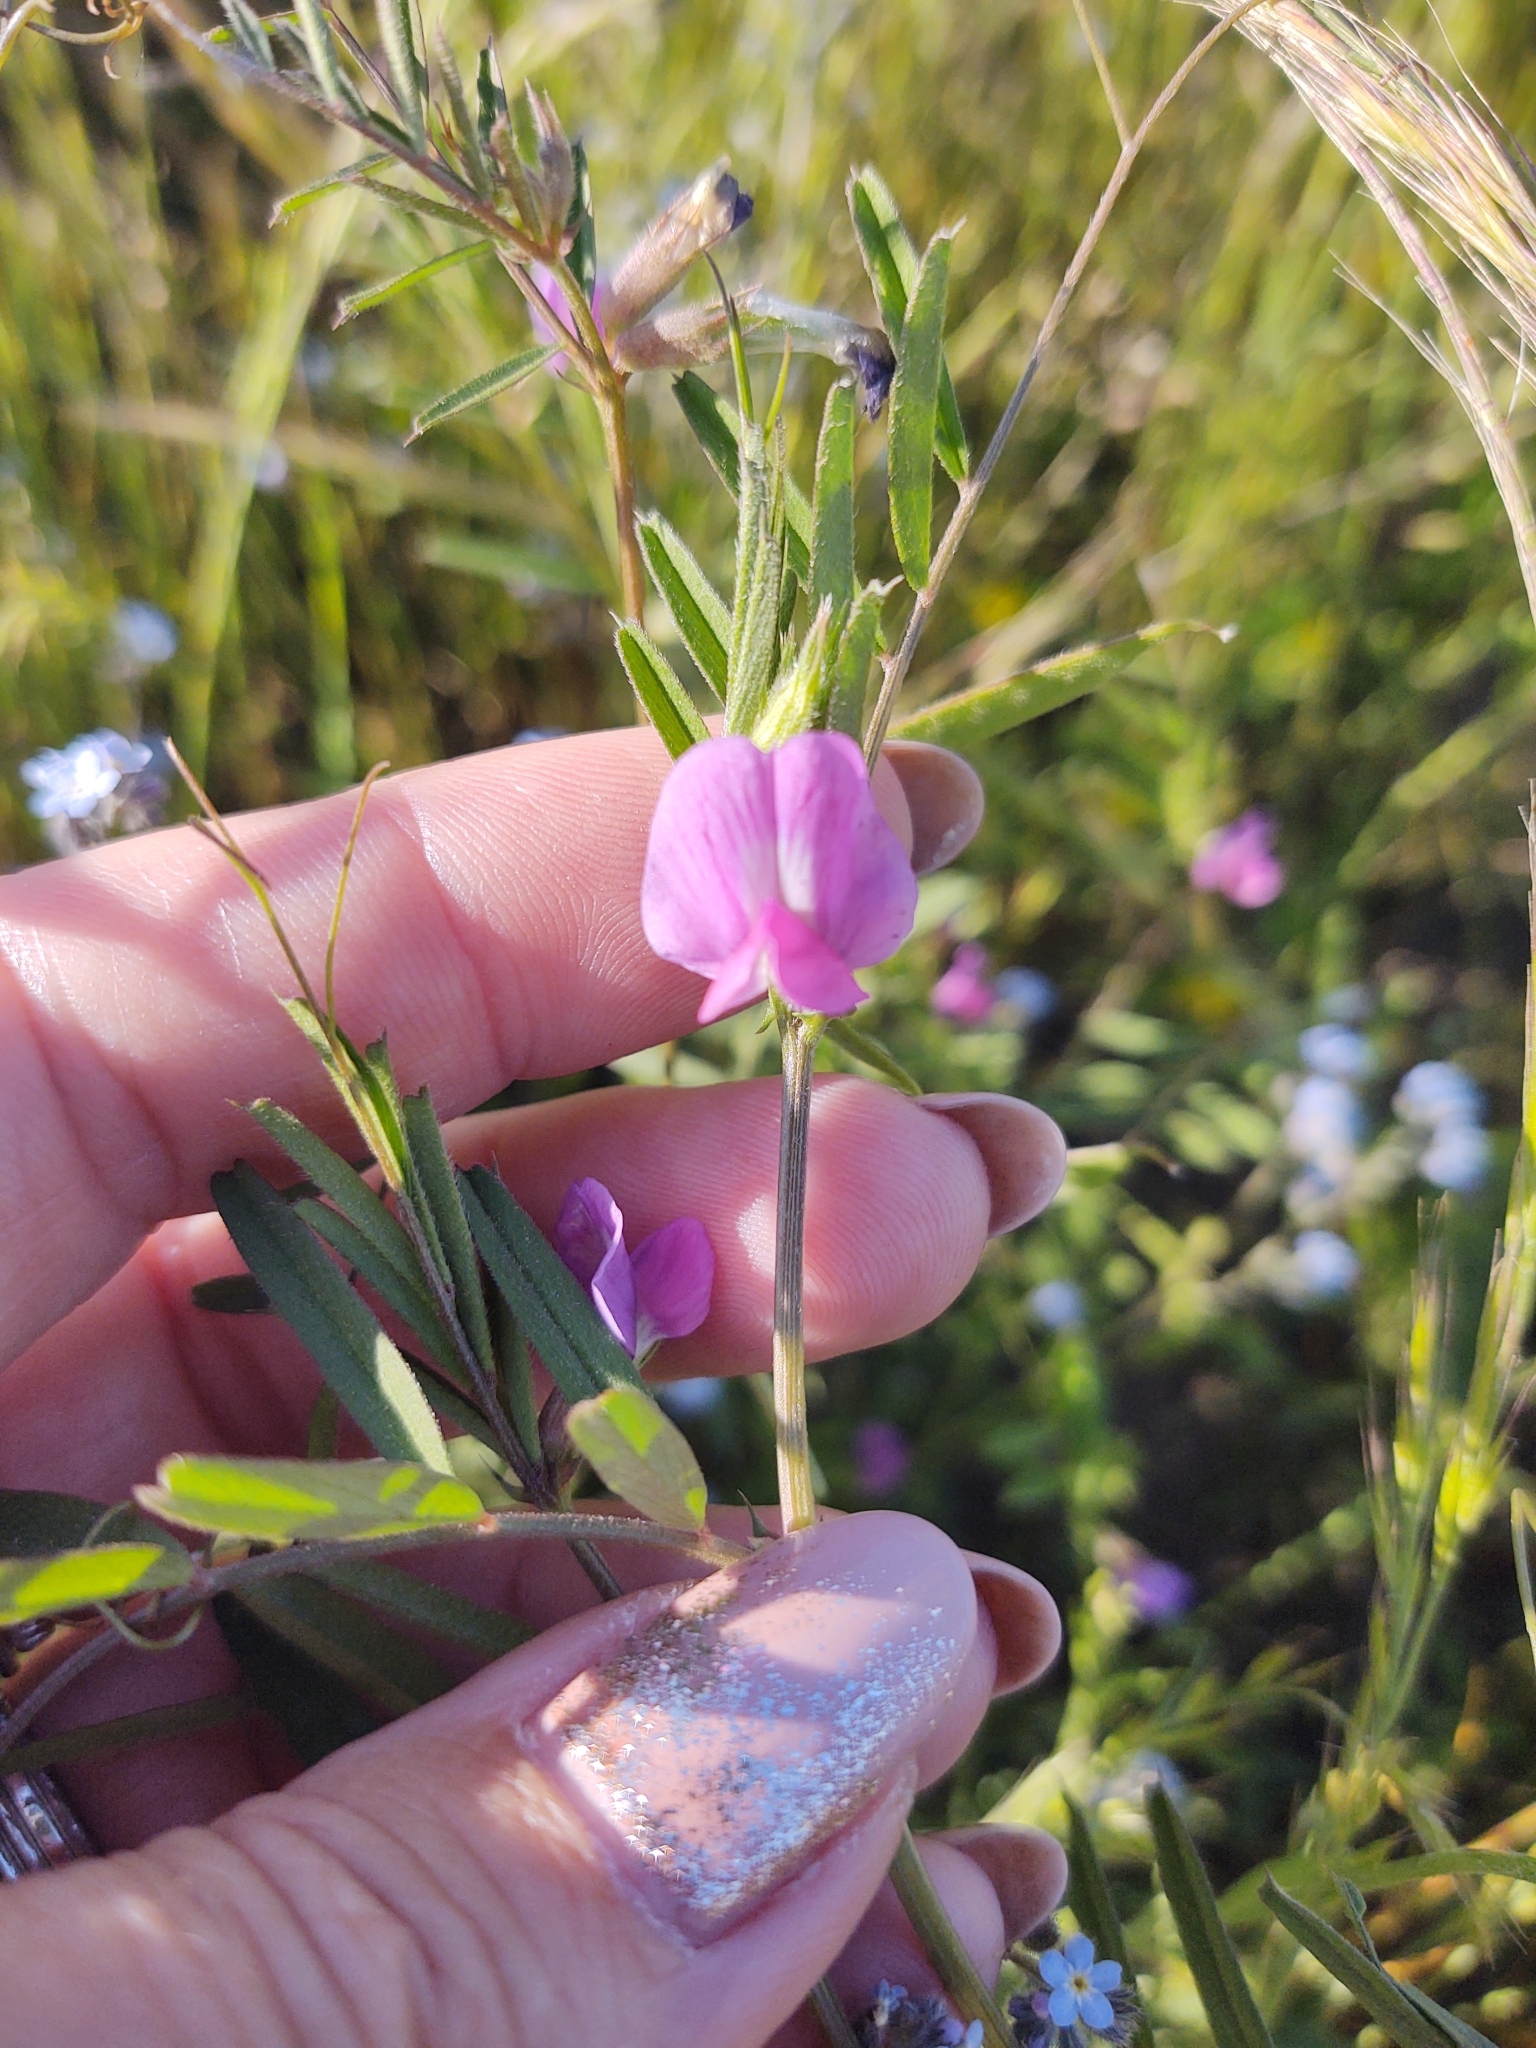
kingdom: Plantae
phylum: Tracheophyta
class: Magnoliopsida
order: Fabales
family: Fabaceae
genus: Vicia
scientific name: Vicia sativa
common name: Garden vetch
